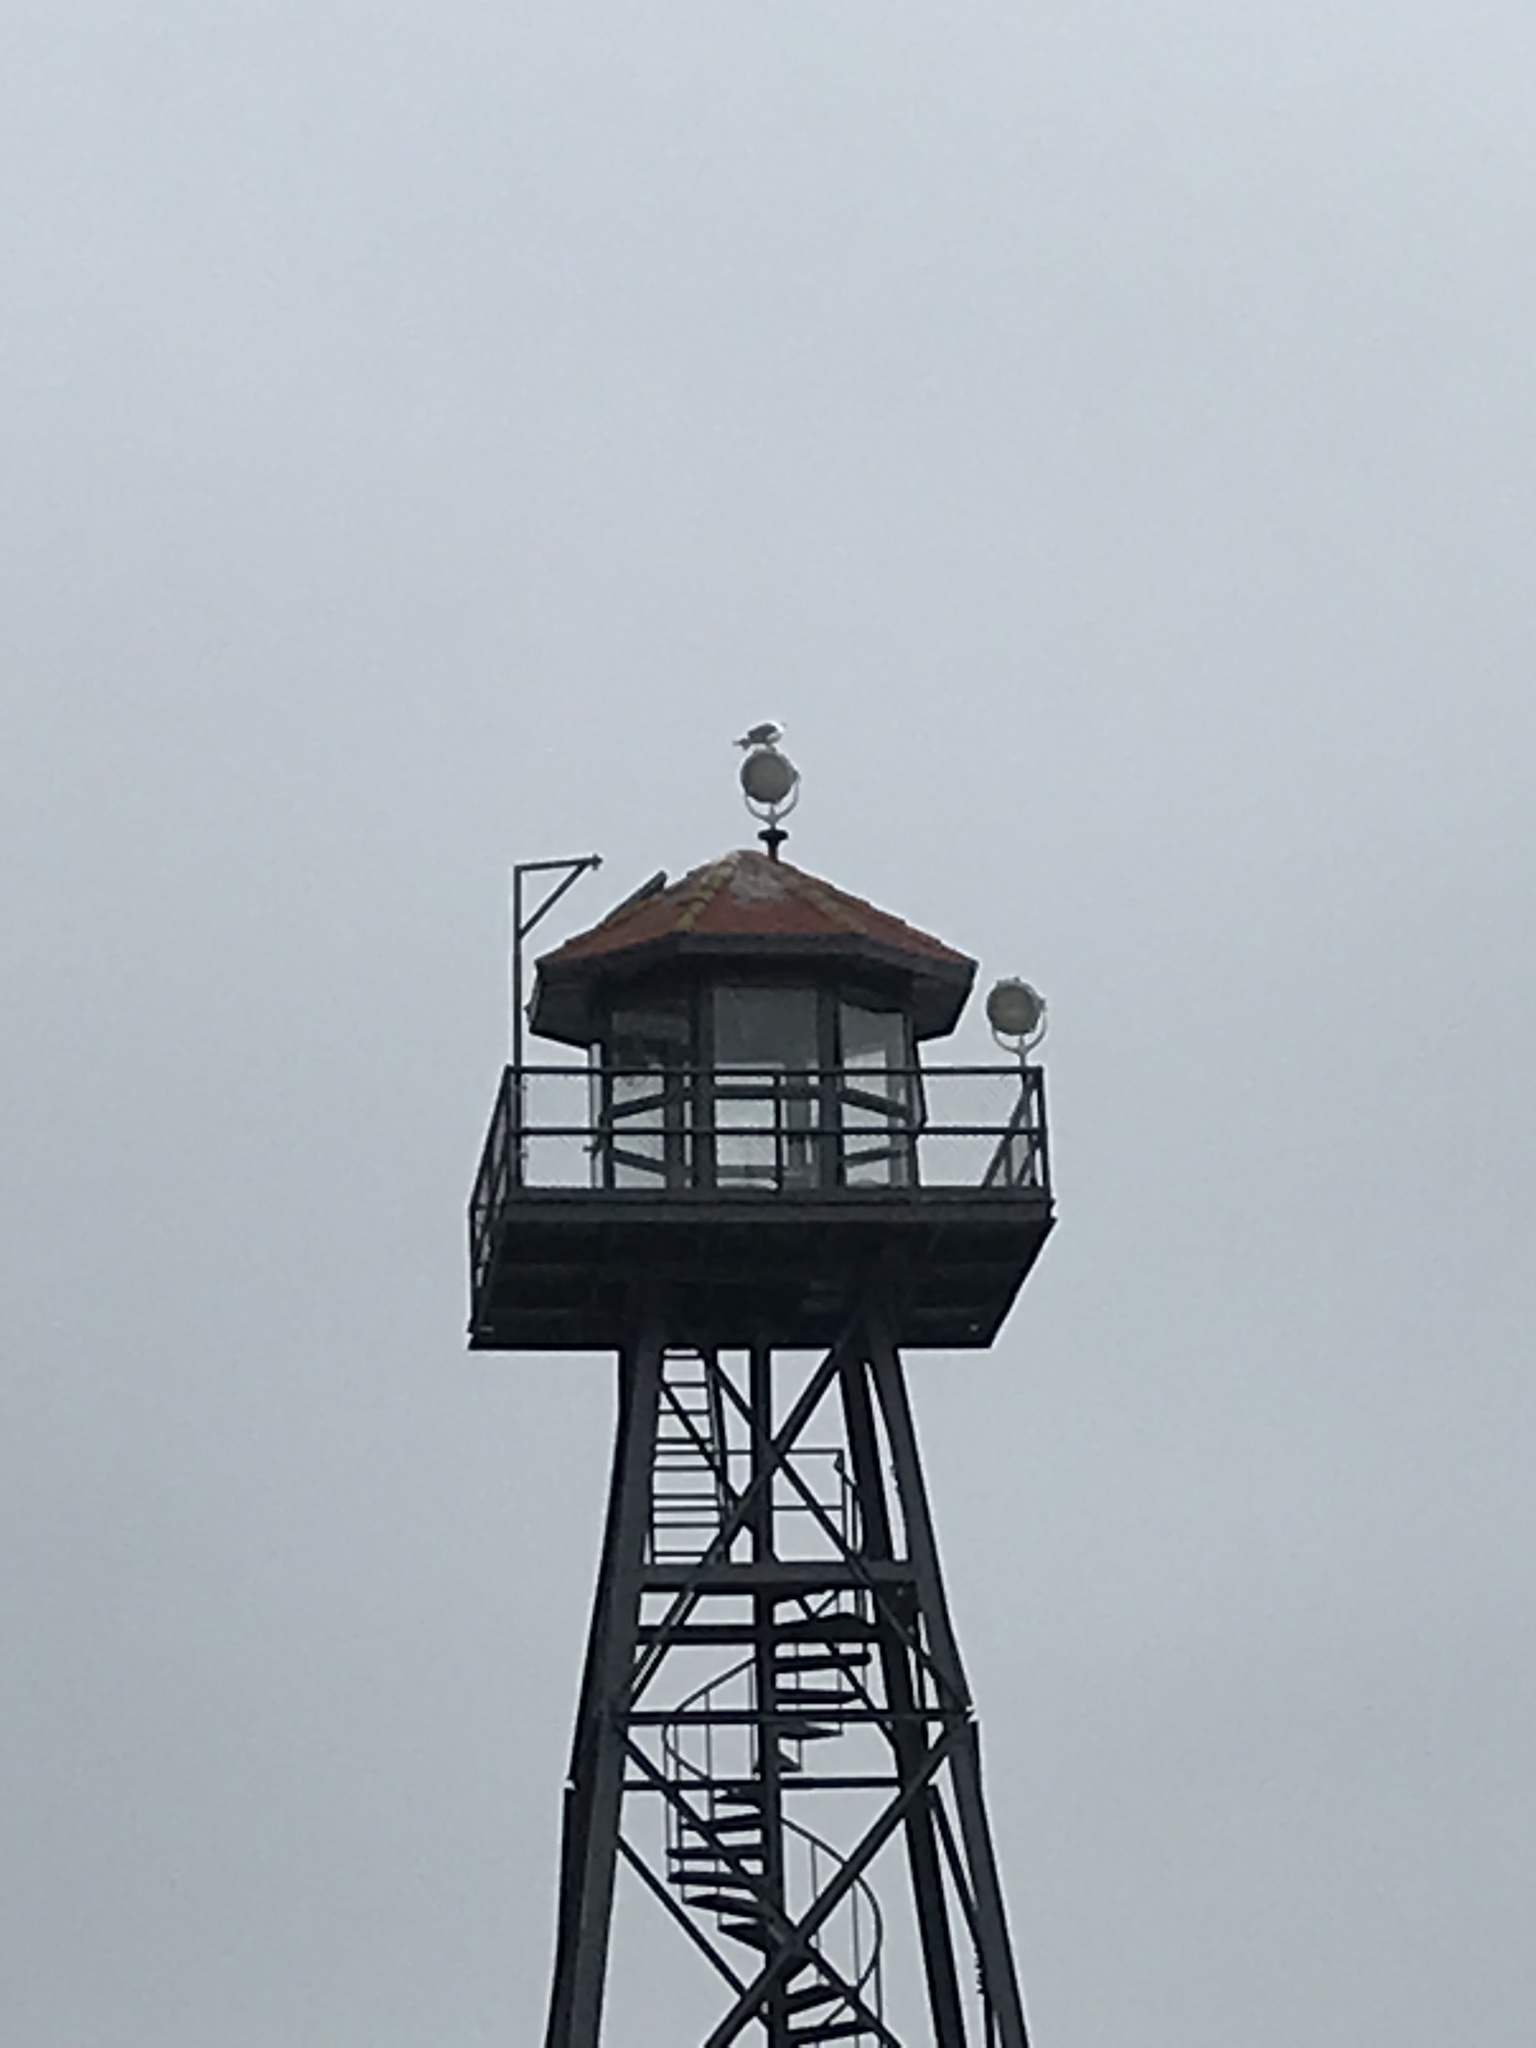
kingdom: Animalia
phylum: Chordata
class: Aves
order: Charadriiformes
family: Laridae
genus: Larus
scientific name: Larus occidentalis
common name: Western gull
